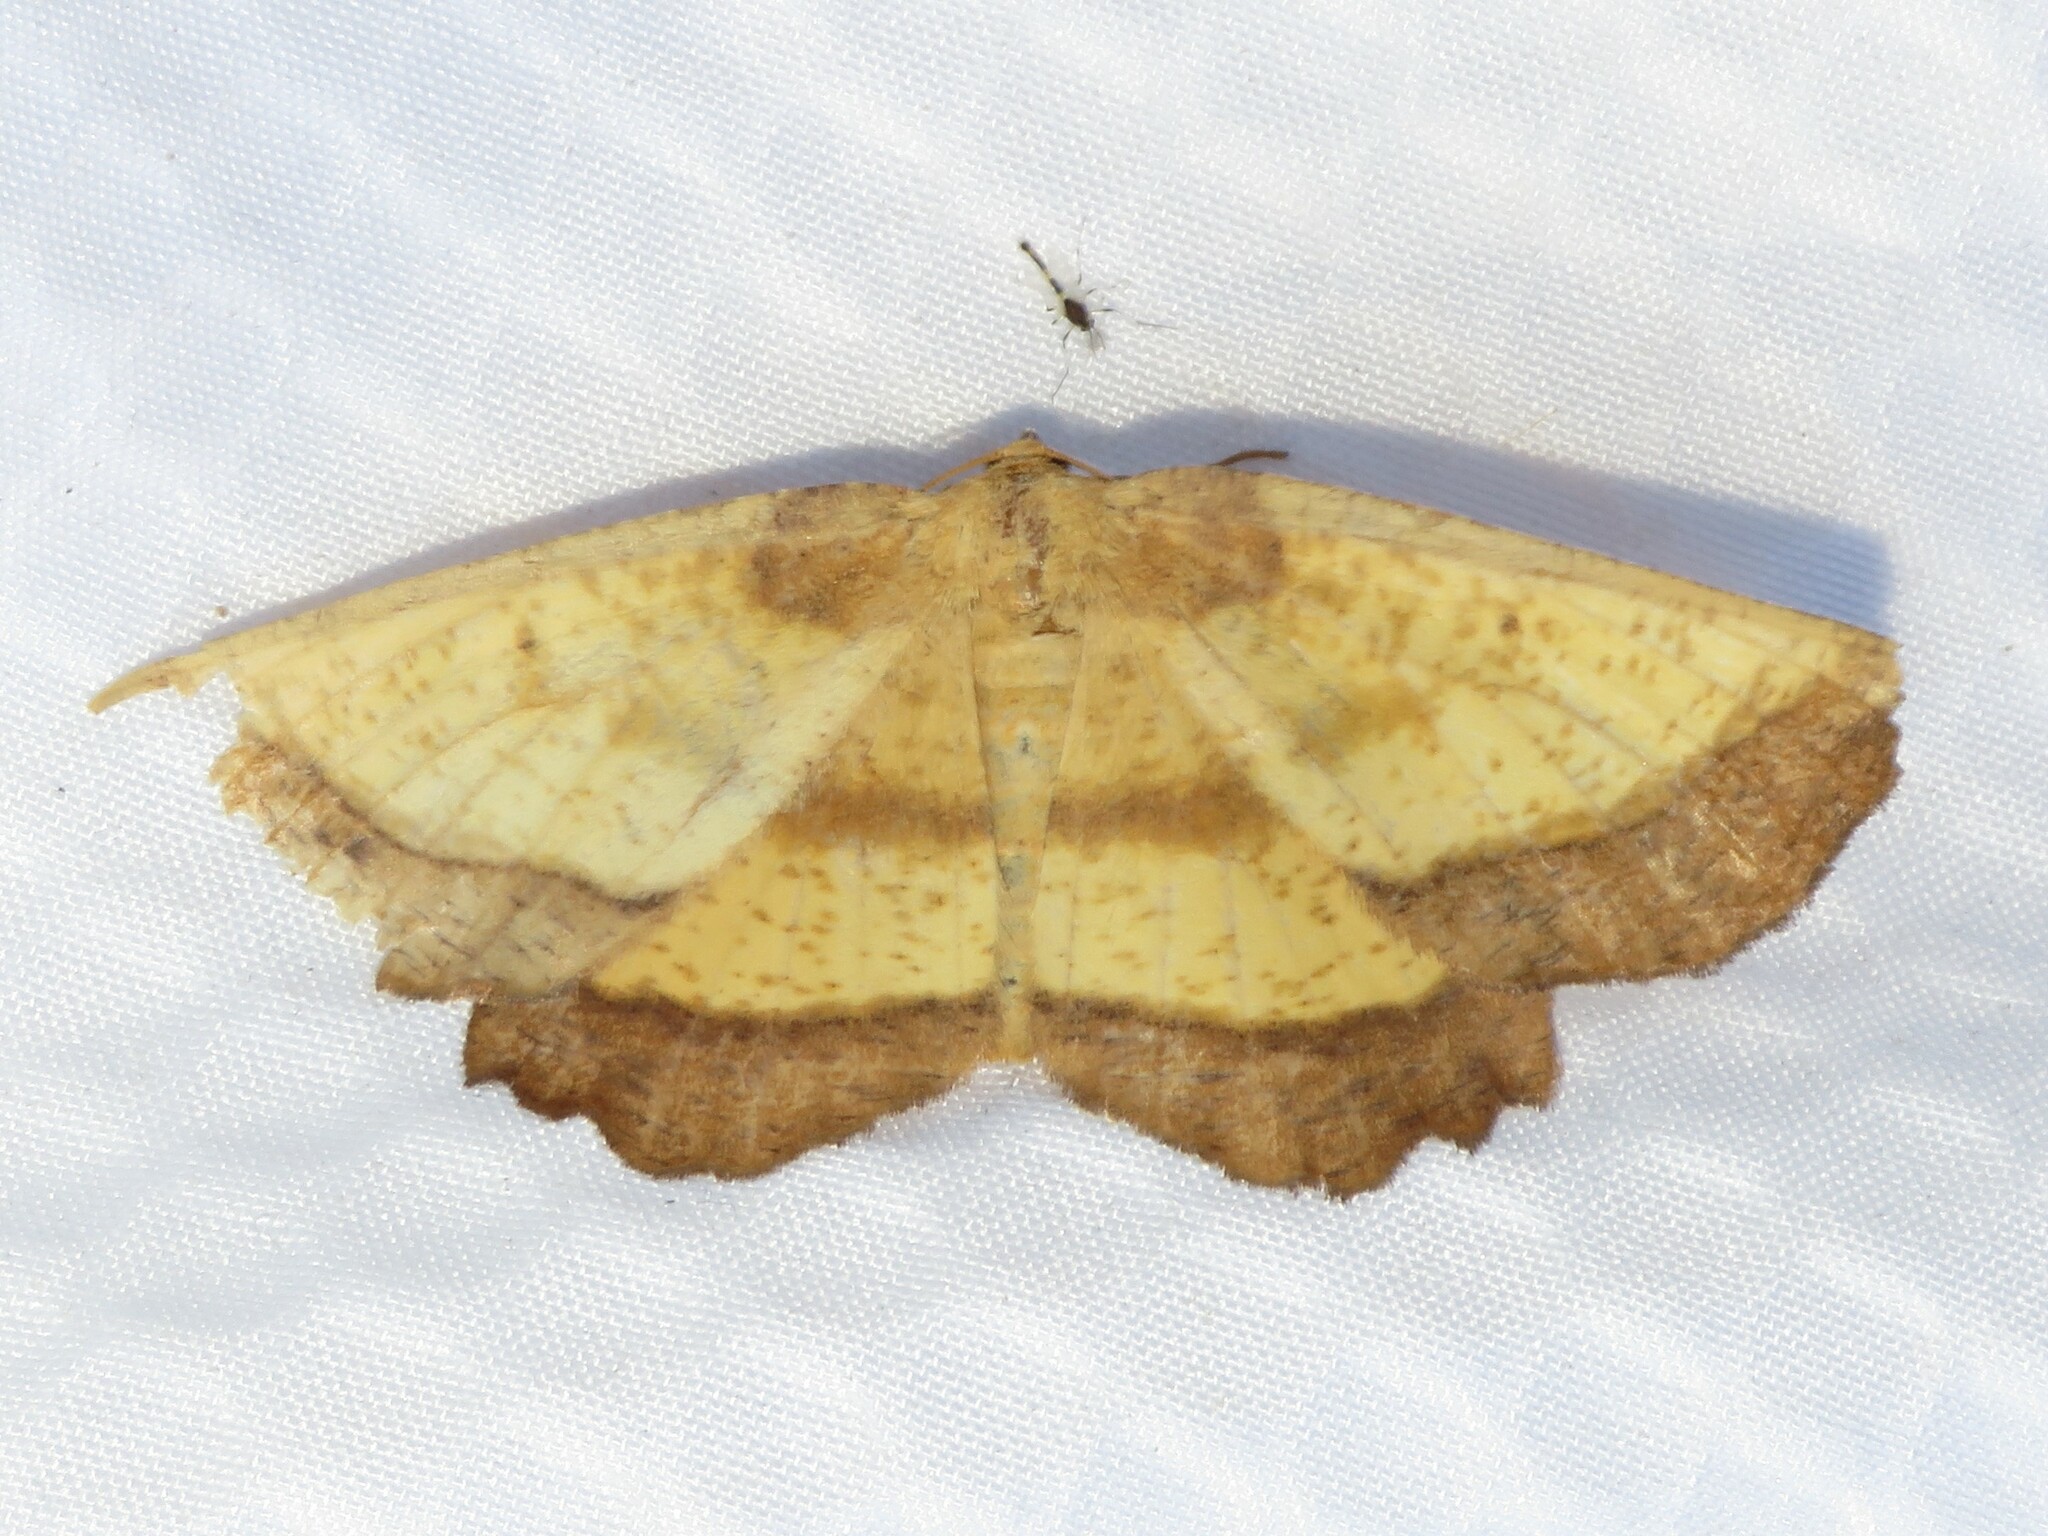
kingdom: Animalia
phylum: Arthropoda
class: Insecta
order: Lepidoptera
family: Geometridae
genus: Euchlaena
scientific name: Euchlaena serrata
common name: Saw wing
